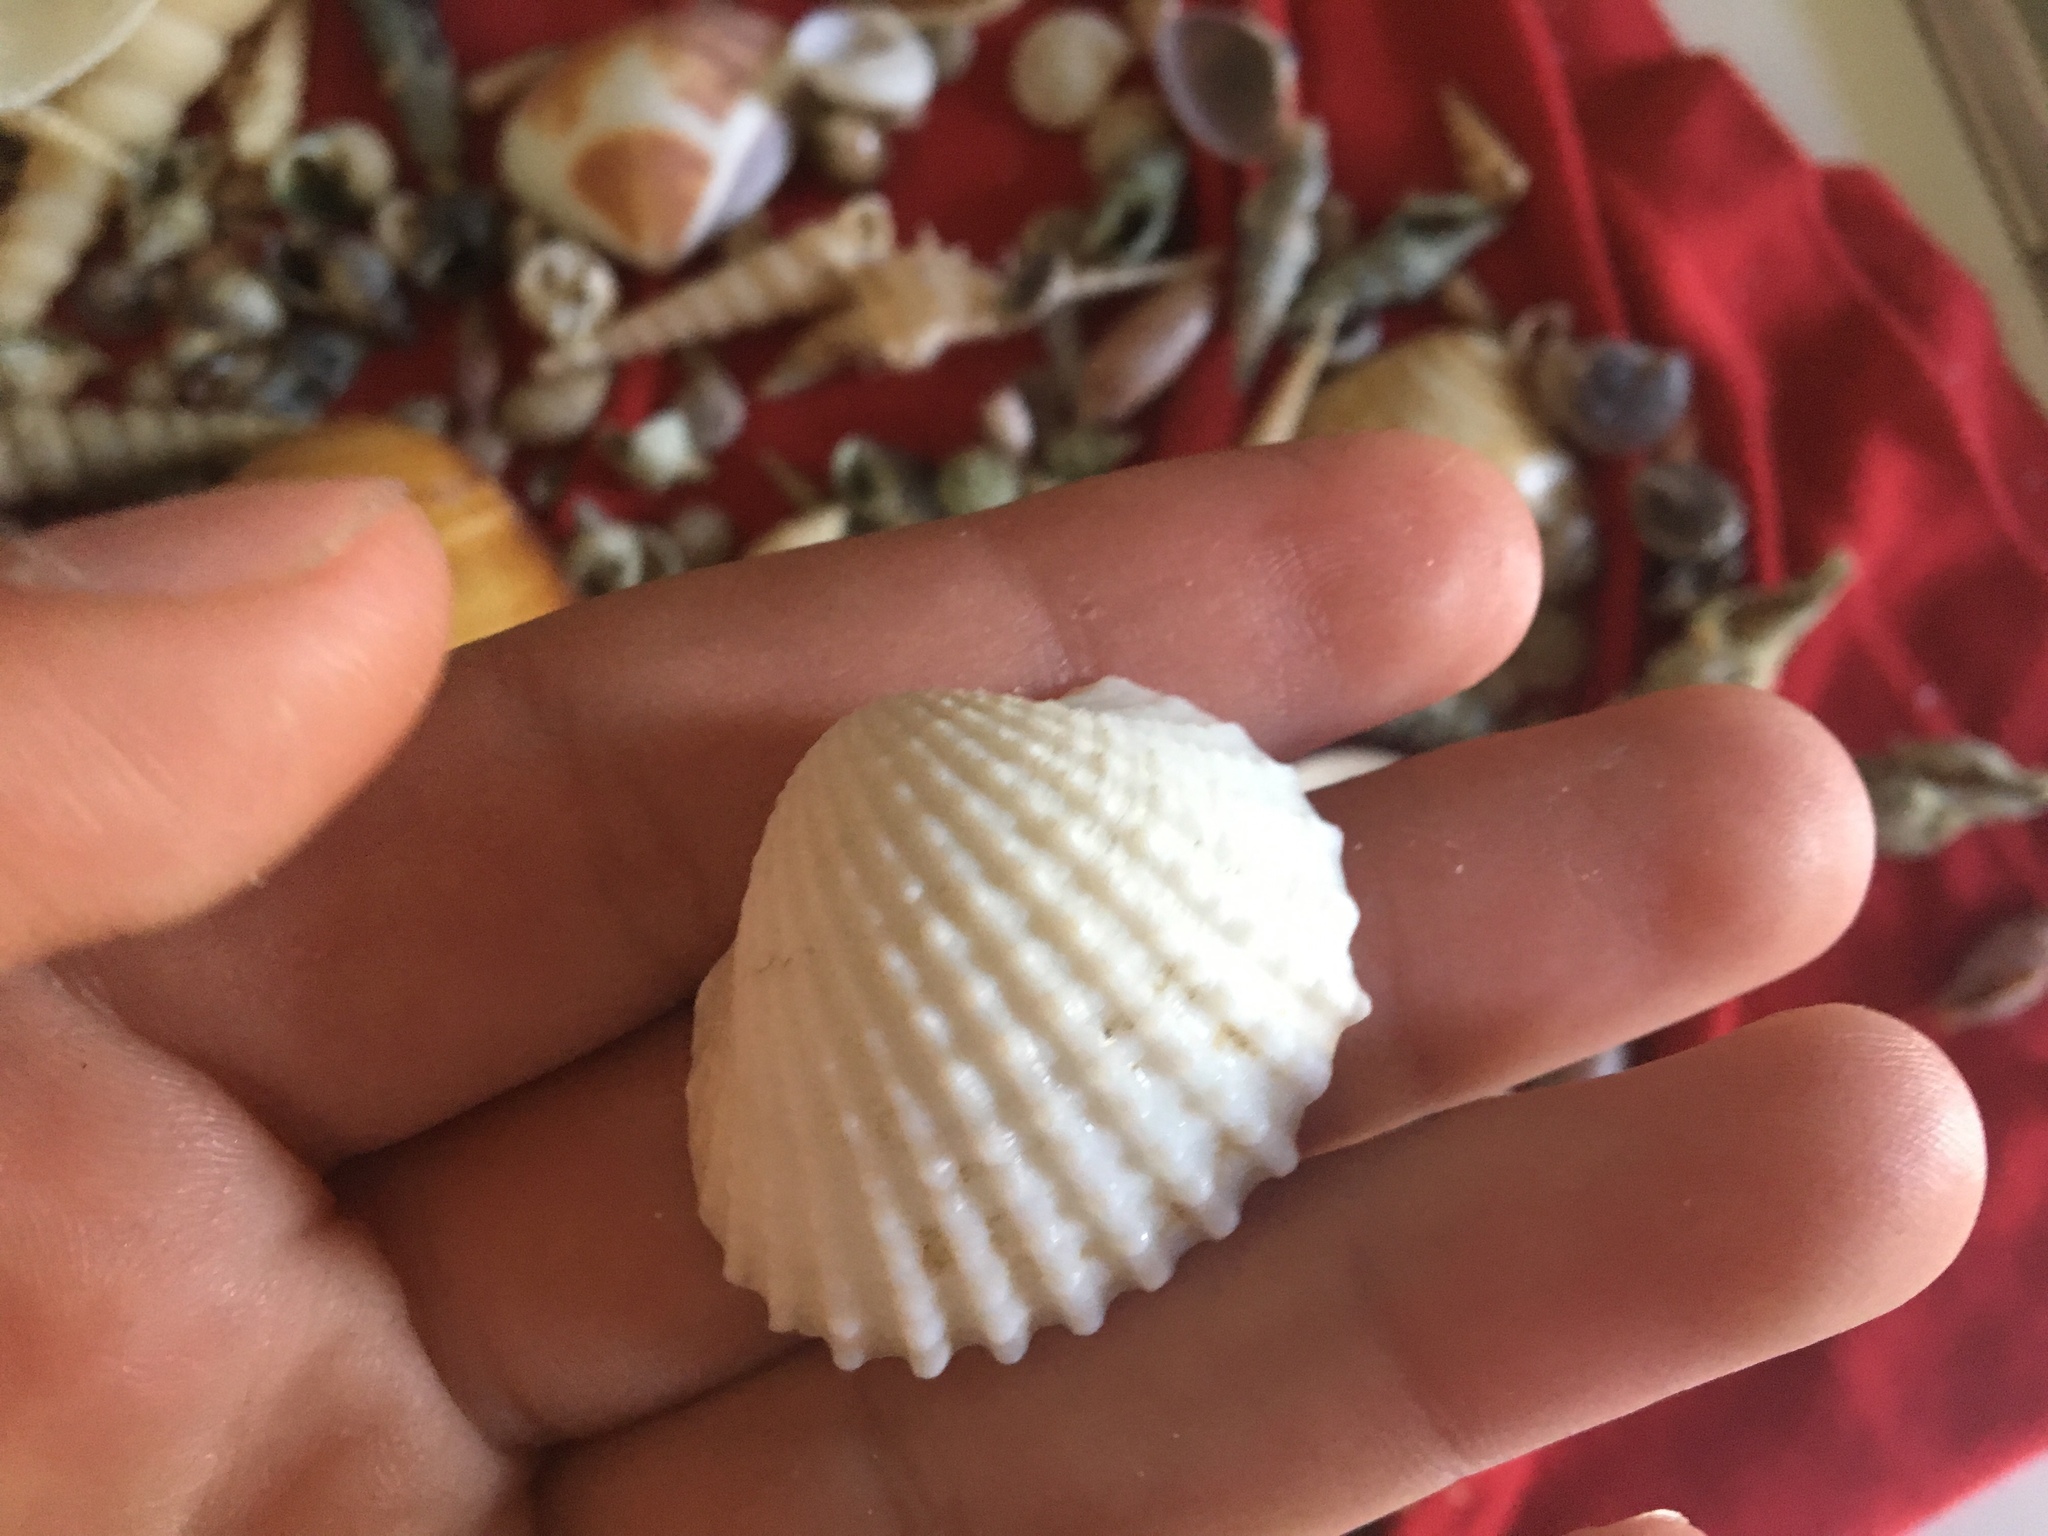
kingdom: Animalia
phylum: Mollusca
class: Bivalvia
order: Arcida
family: Arcidae
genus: Tegillarca
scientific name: Tegillarca granosa
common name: Blood clam
